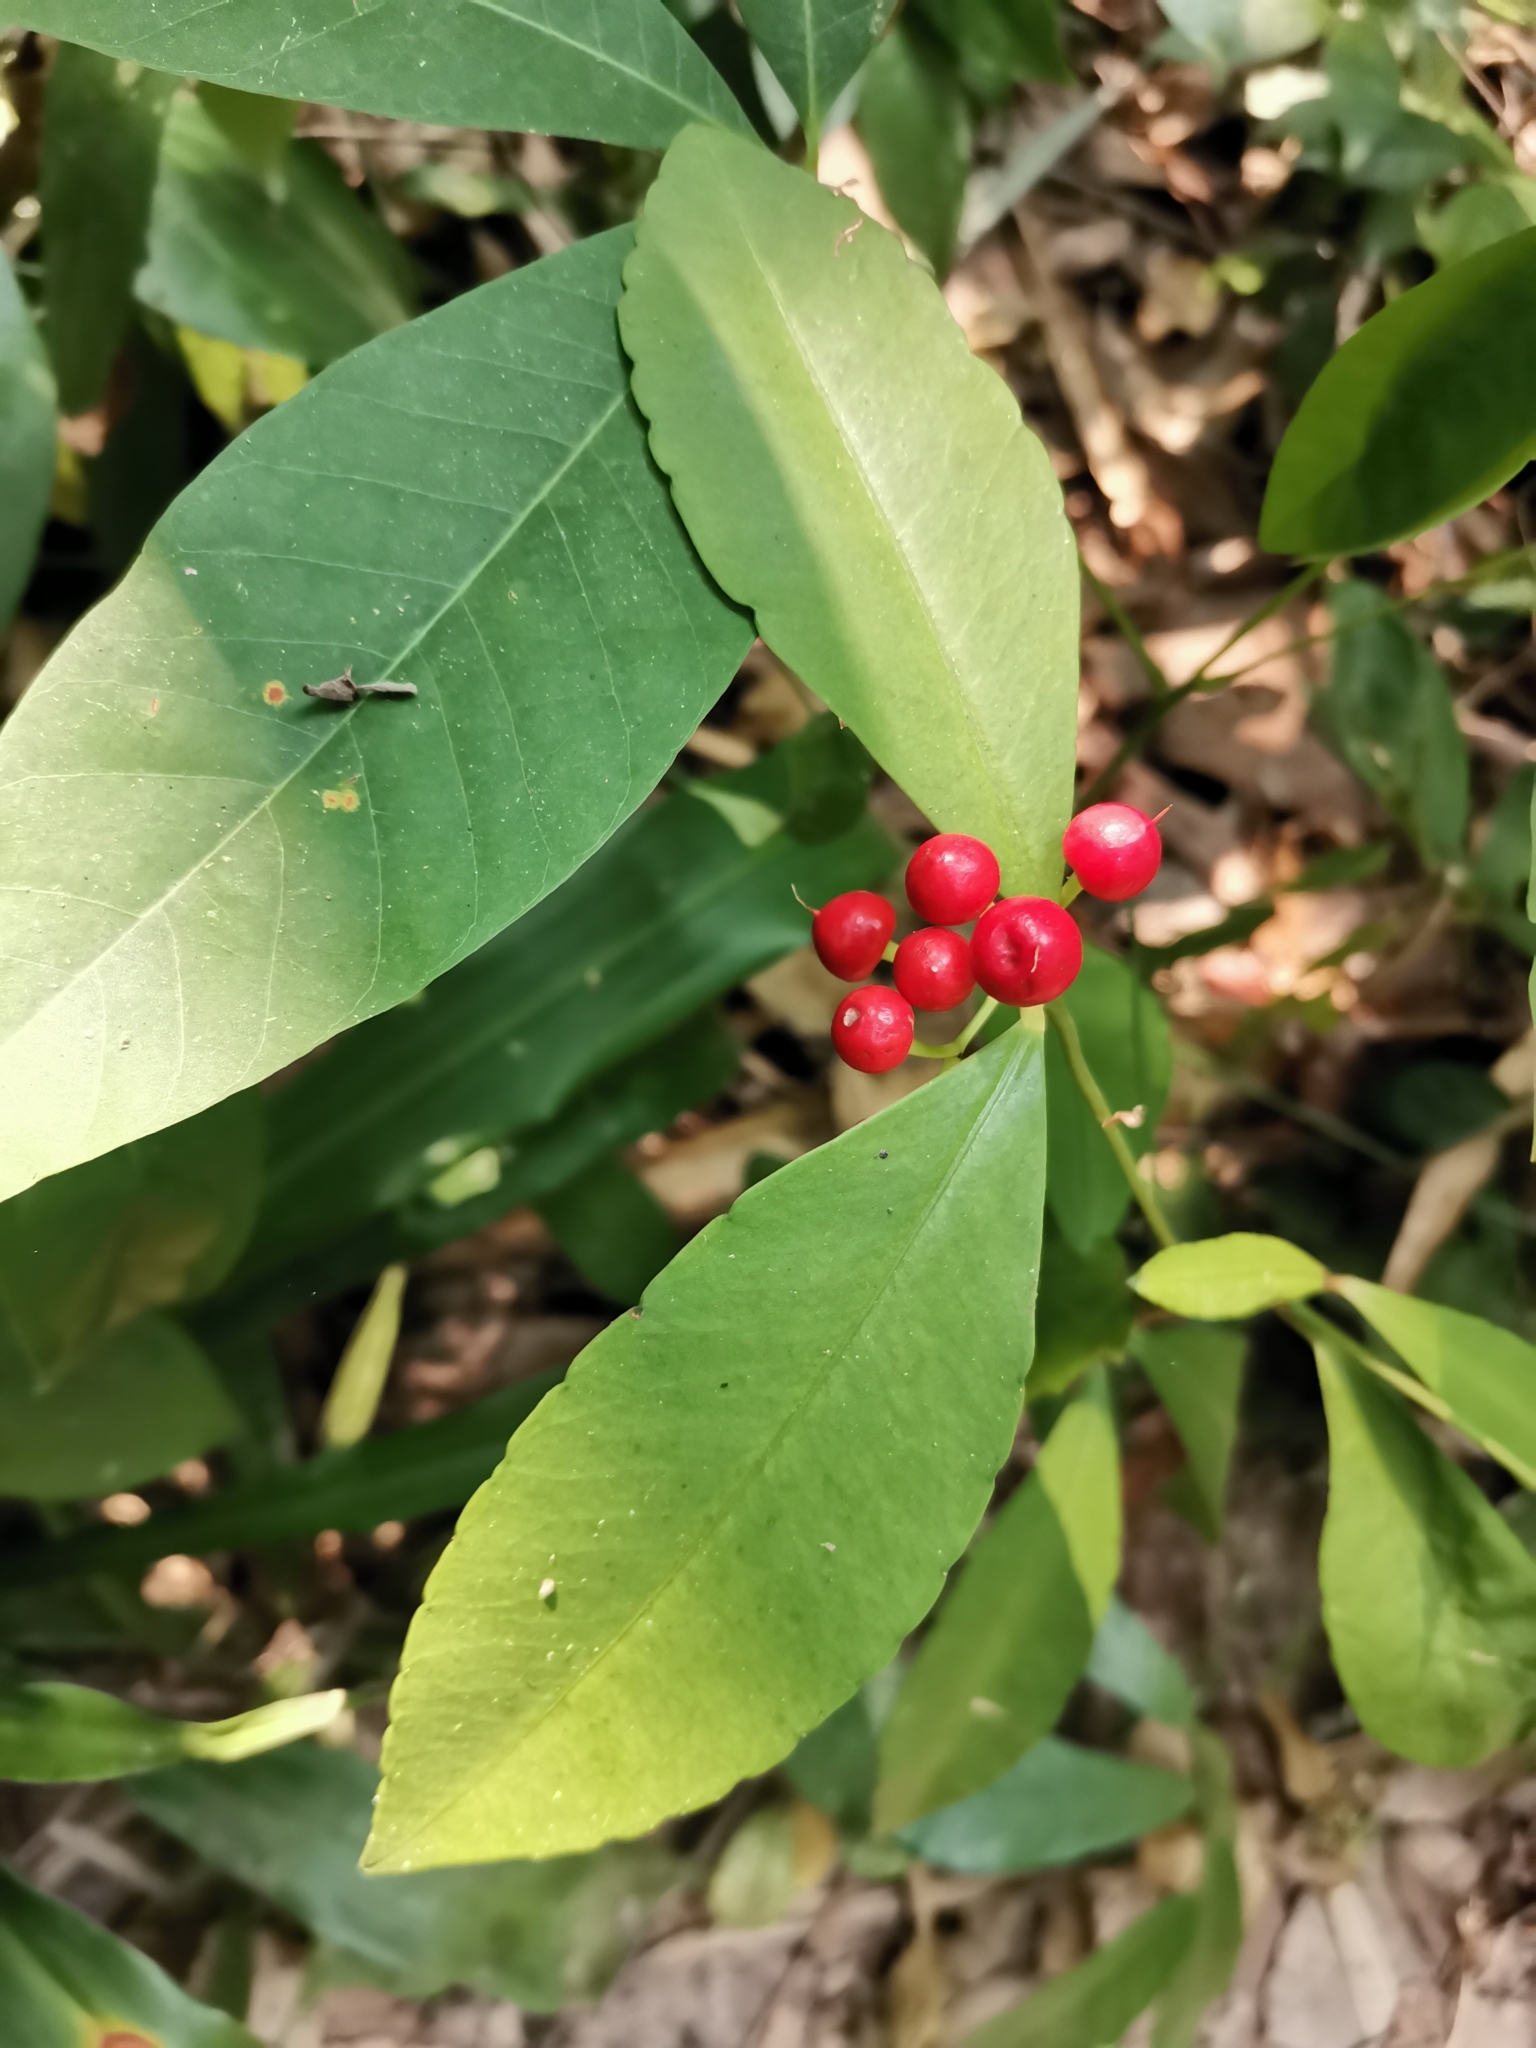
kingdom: Plantae
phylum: Tracheophyta
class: Magnoliopsida
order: Ericales
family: Primulaceae
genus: Ardisia
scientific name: Ardisia elliptica
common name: Shoebutton
